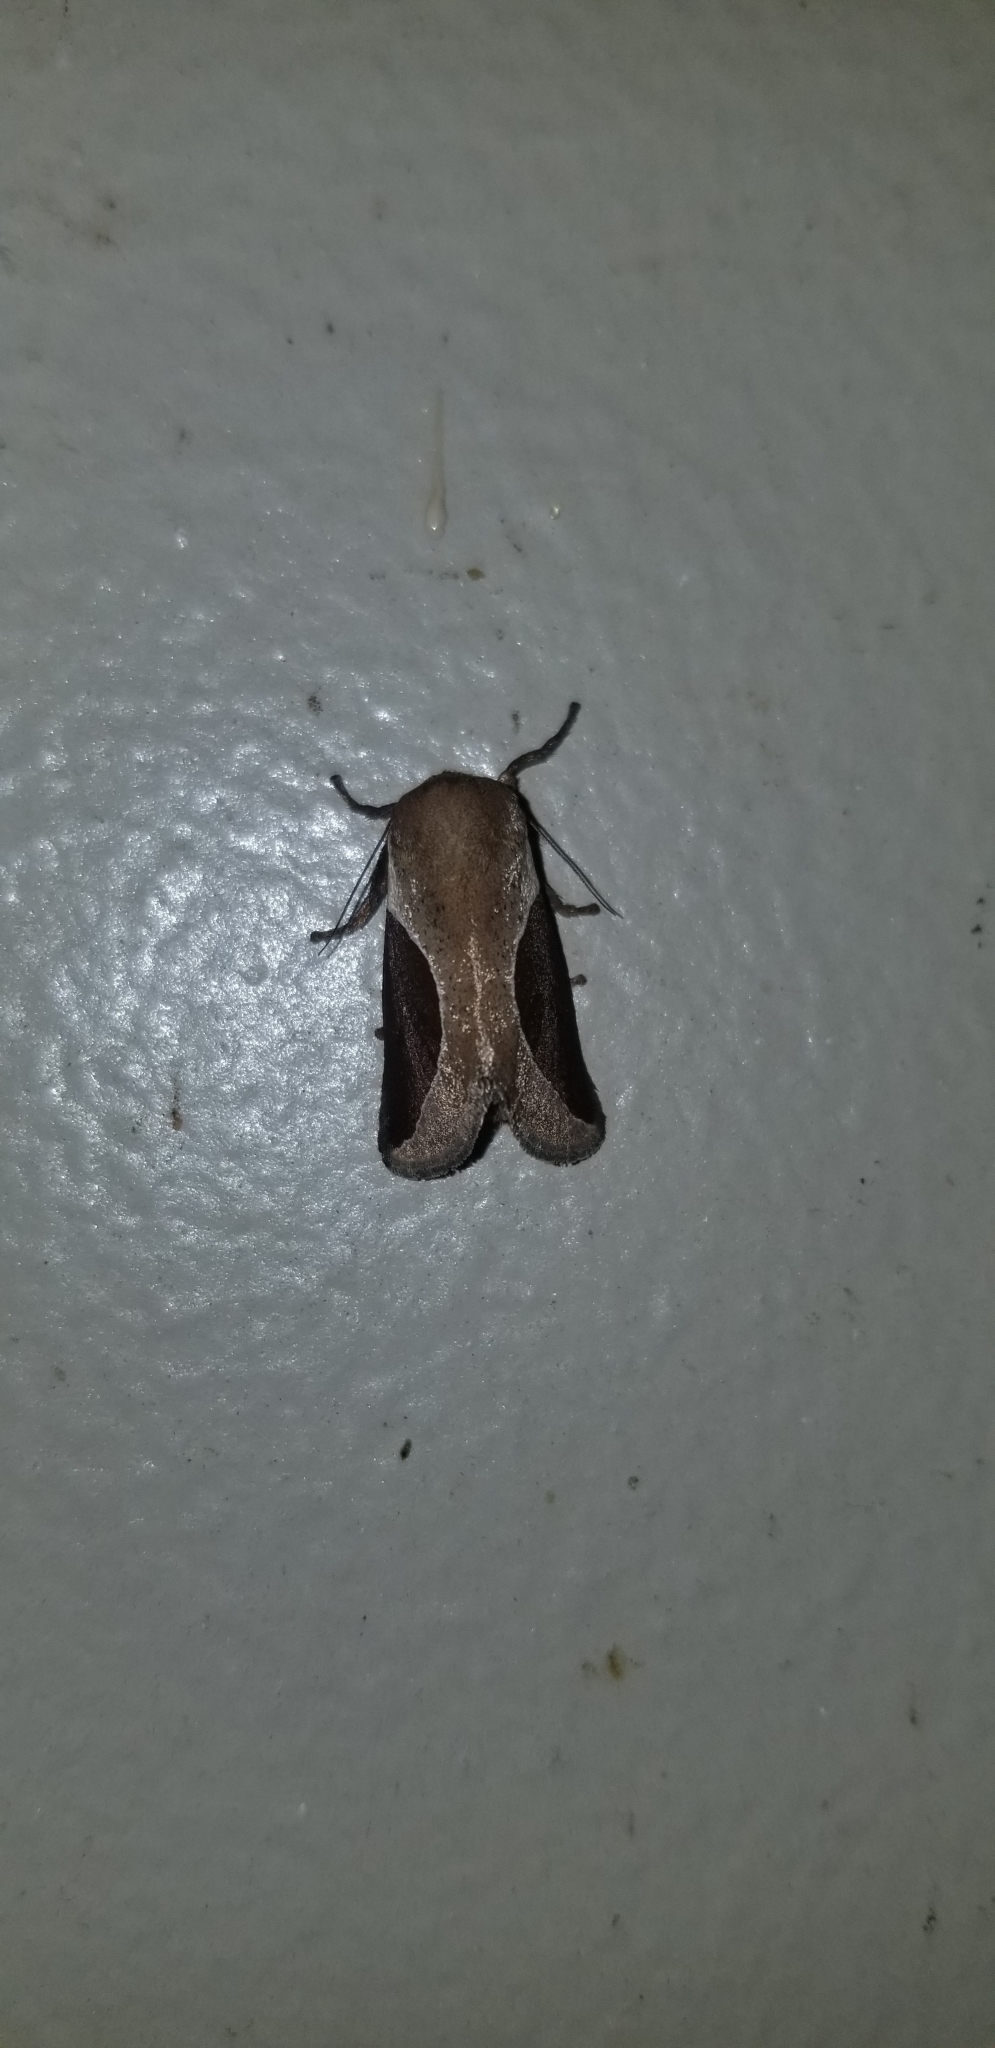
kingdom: Animalia
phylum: Arthropoda
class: Insecta
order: Lepidoptera
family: Limacodidae
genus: Prolimacodes
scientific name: Prolimacodes badia
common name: Skiff moth
